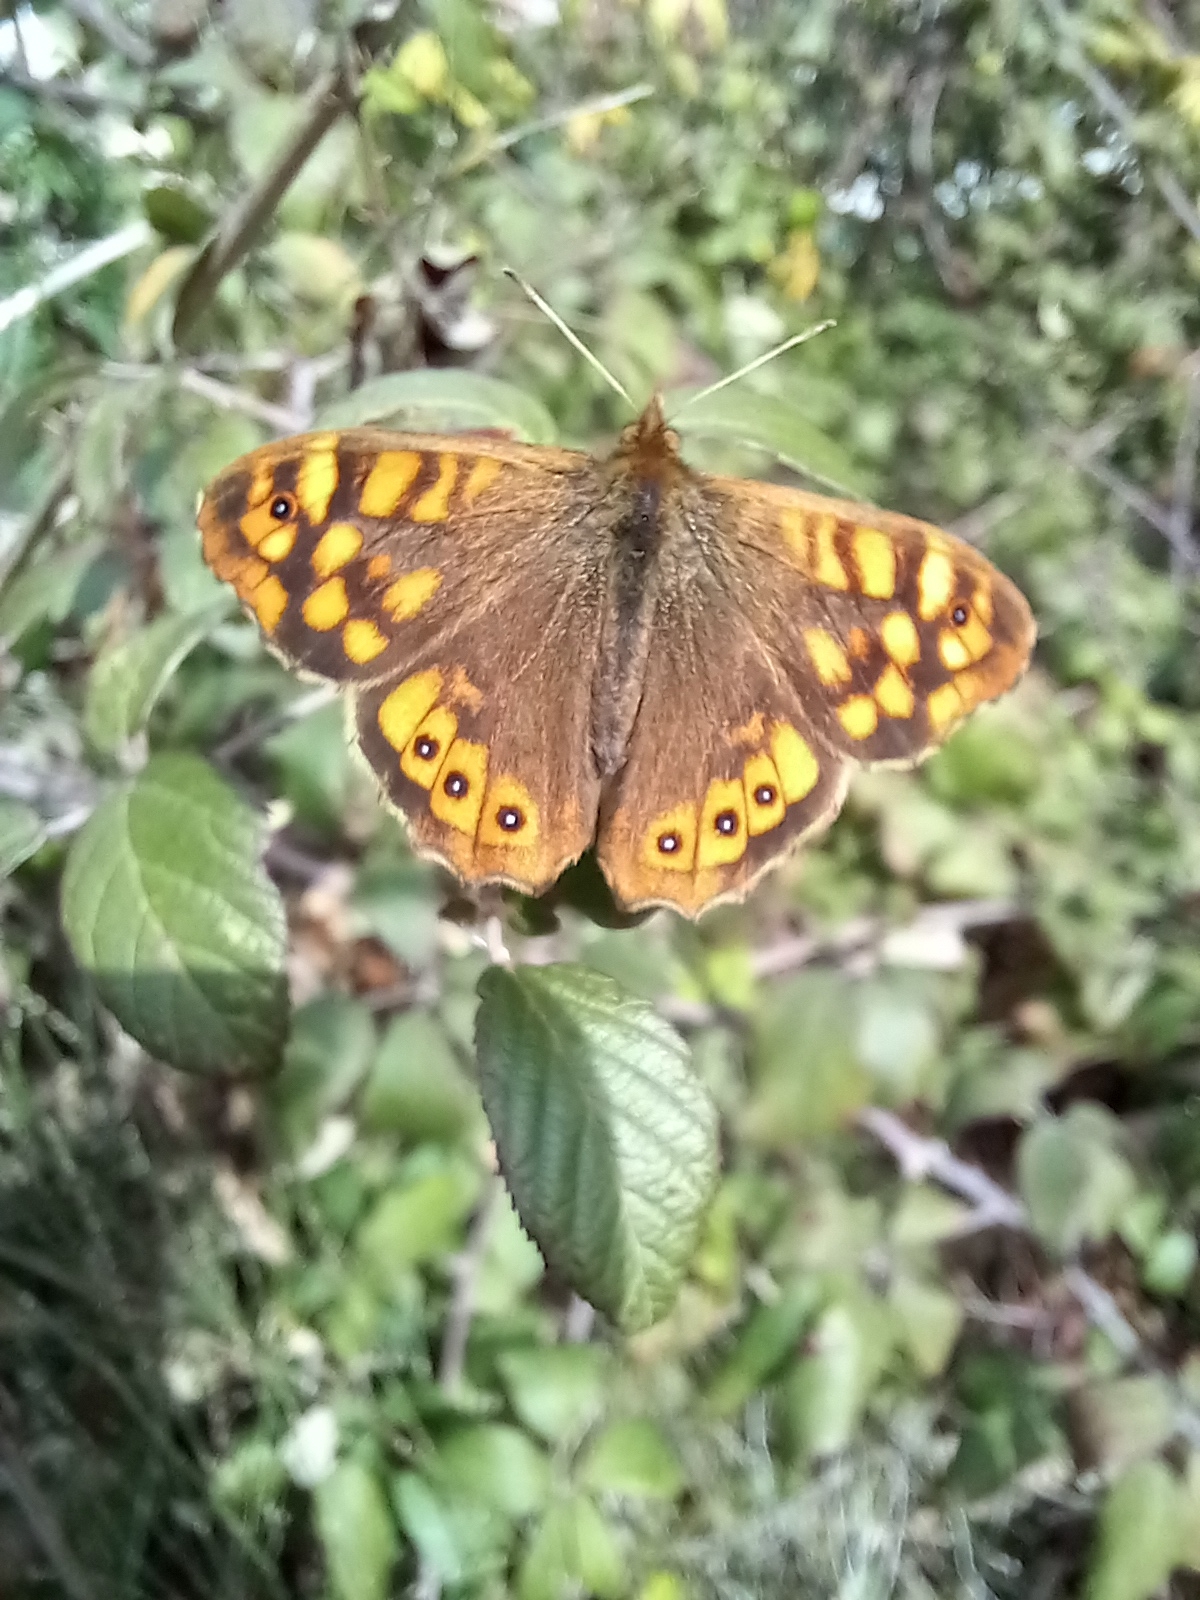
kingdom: Animalia
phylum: Arthropoda
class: Insecta
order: Lepidoptera
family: Nymphalidae
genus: Pararge
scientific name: Pararge aegeria
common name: Speckled wood
